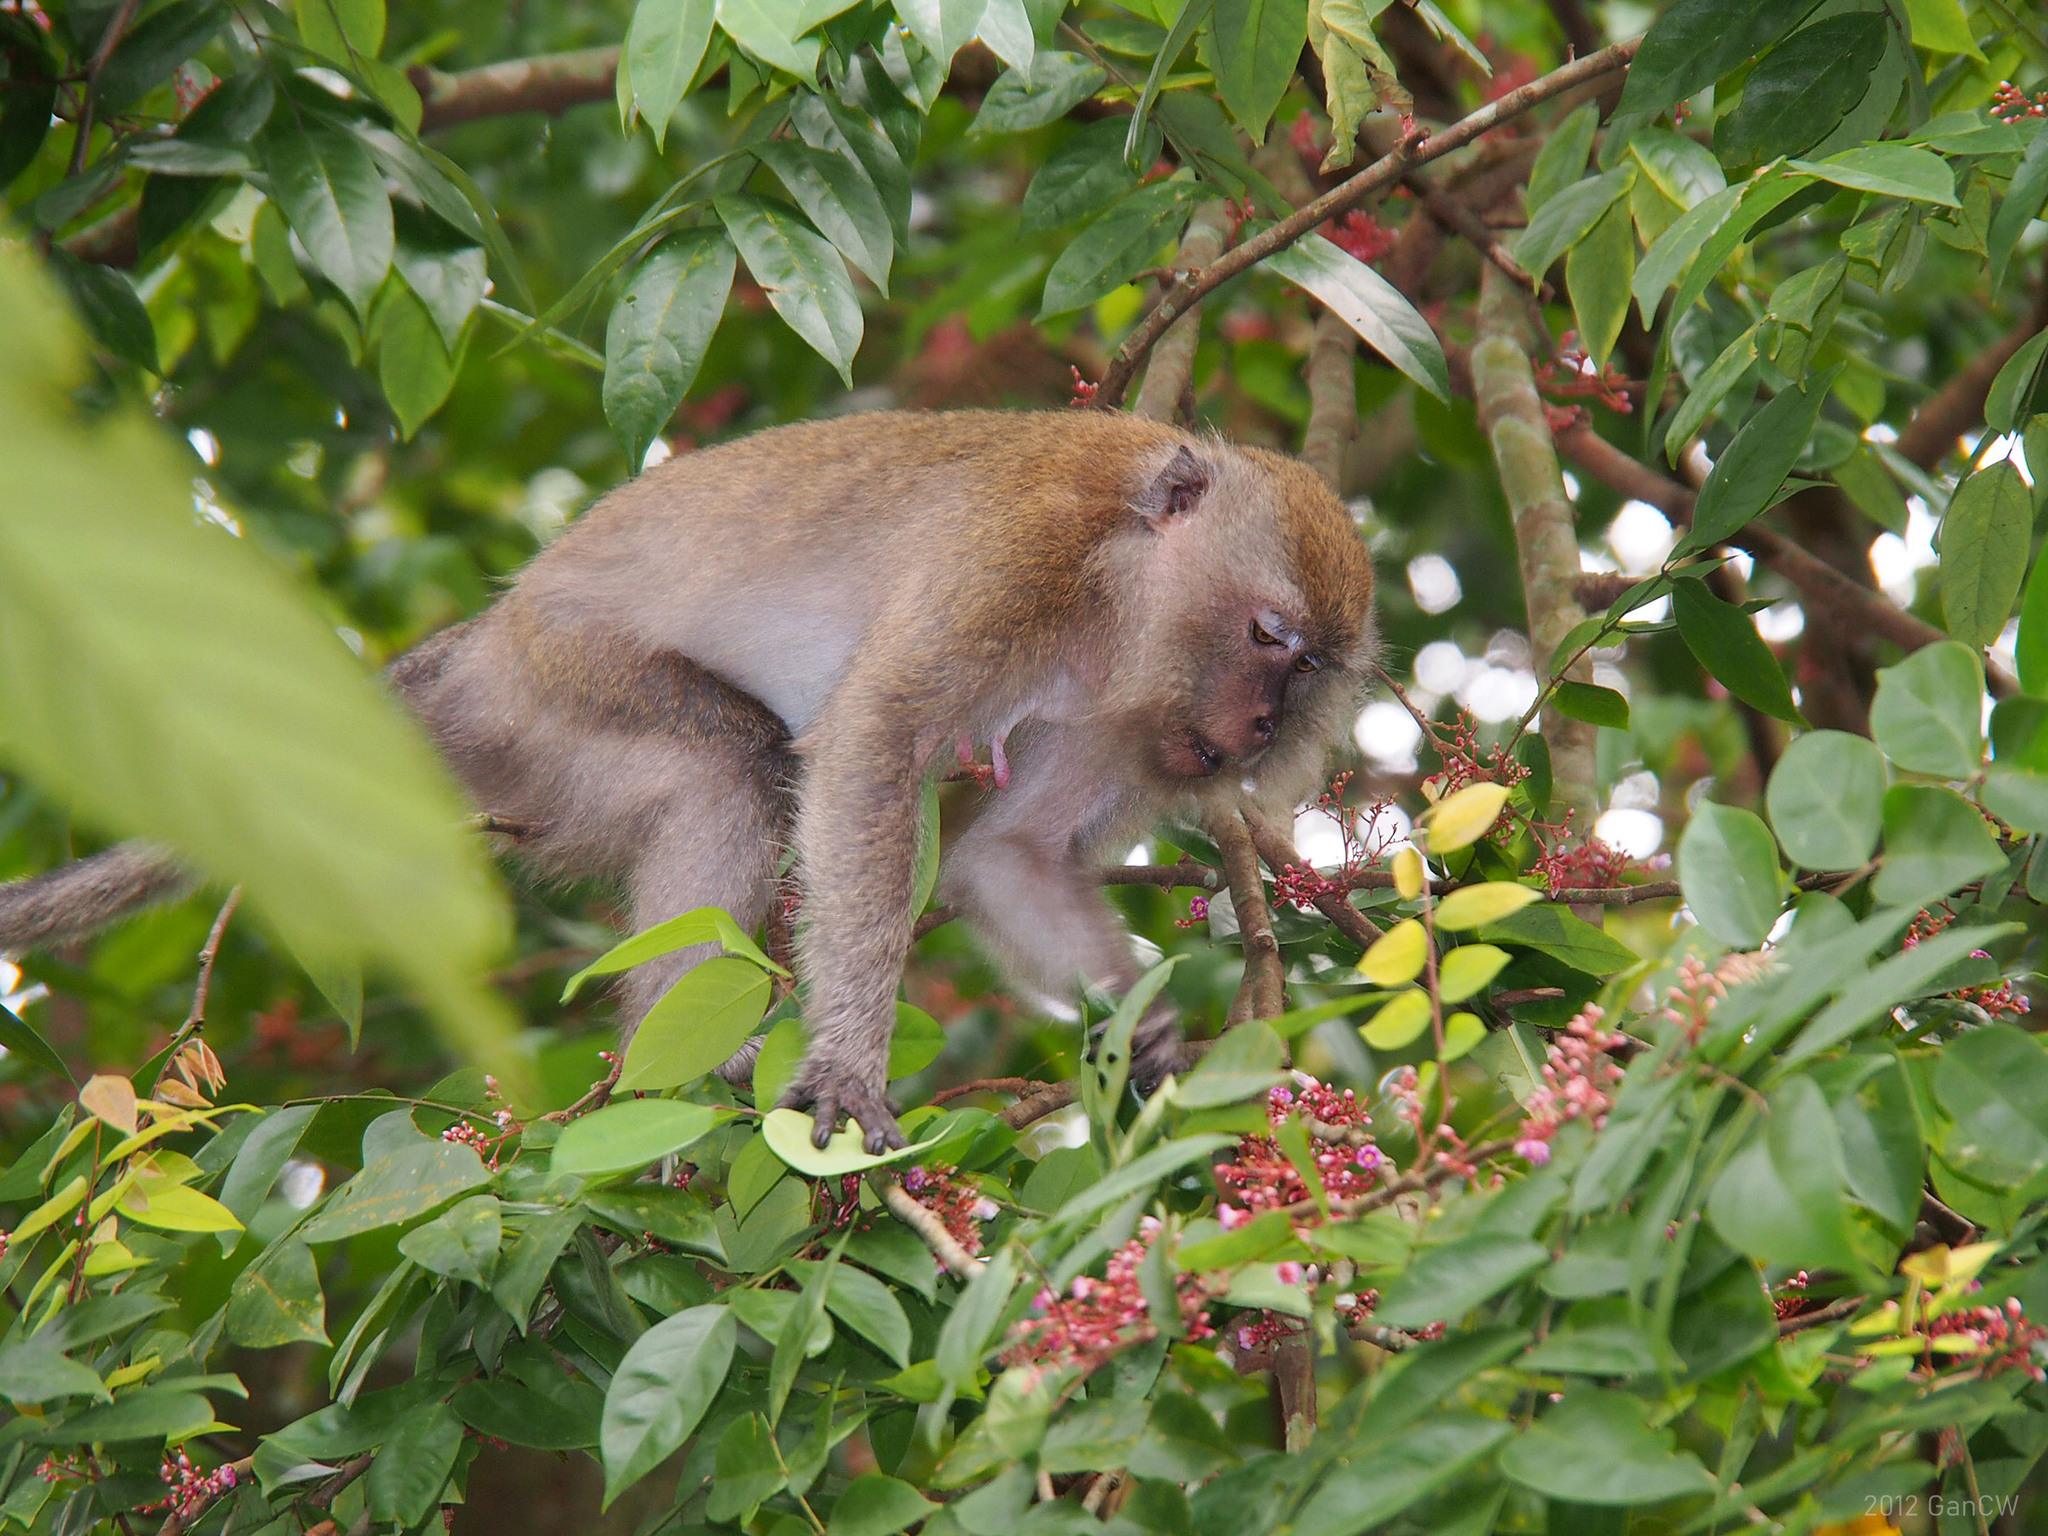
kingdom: Animalia
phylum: Chordata
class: Mammalia
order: Primates
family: Cercopithecidae
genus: Macaca
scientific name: Macaca fascicularis
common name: Crab-eating macaque
